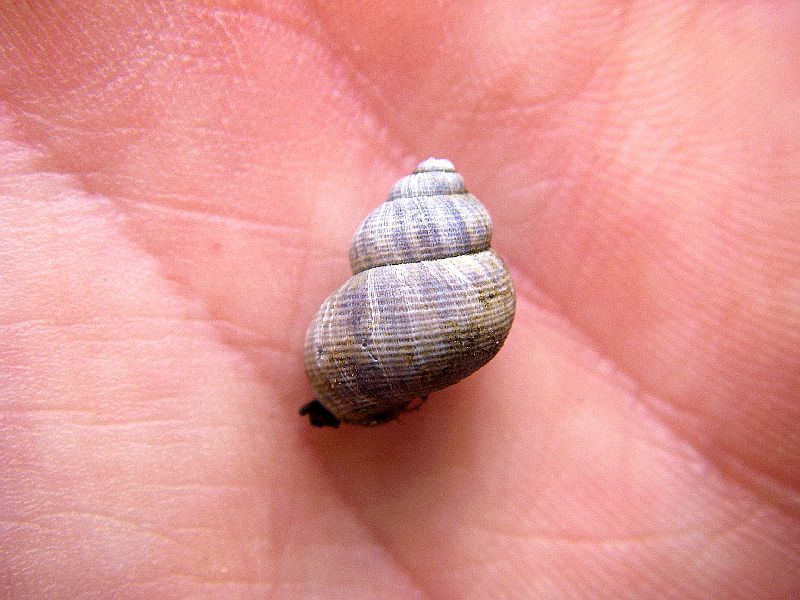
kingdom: Animalia
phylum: Mollusca
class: Gastropoda
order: Littorinimorpha
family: Pomatiidae
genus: Pomatias
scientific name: Pomatias elegans
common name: Red-mouthed snail
